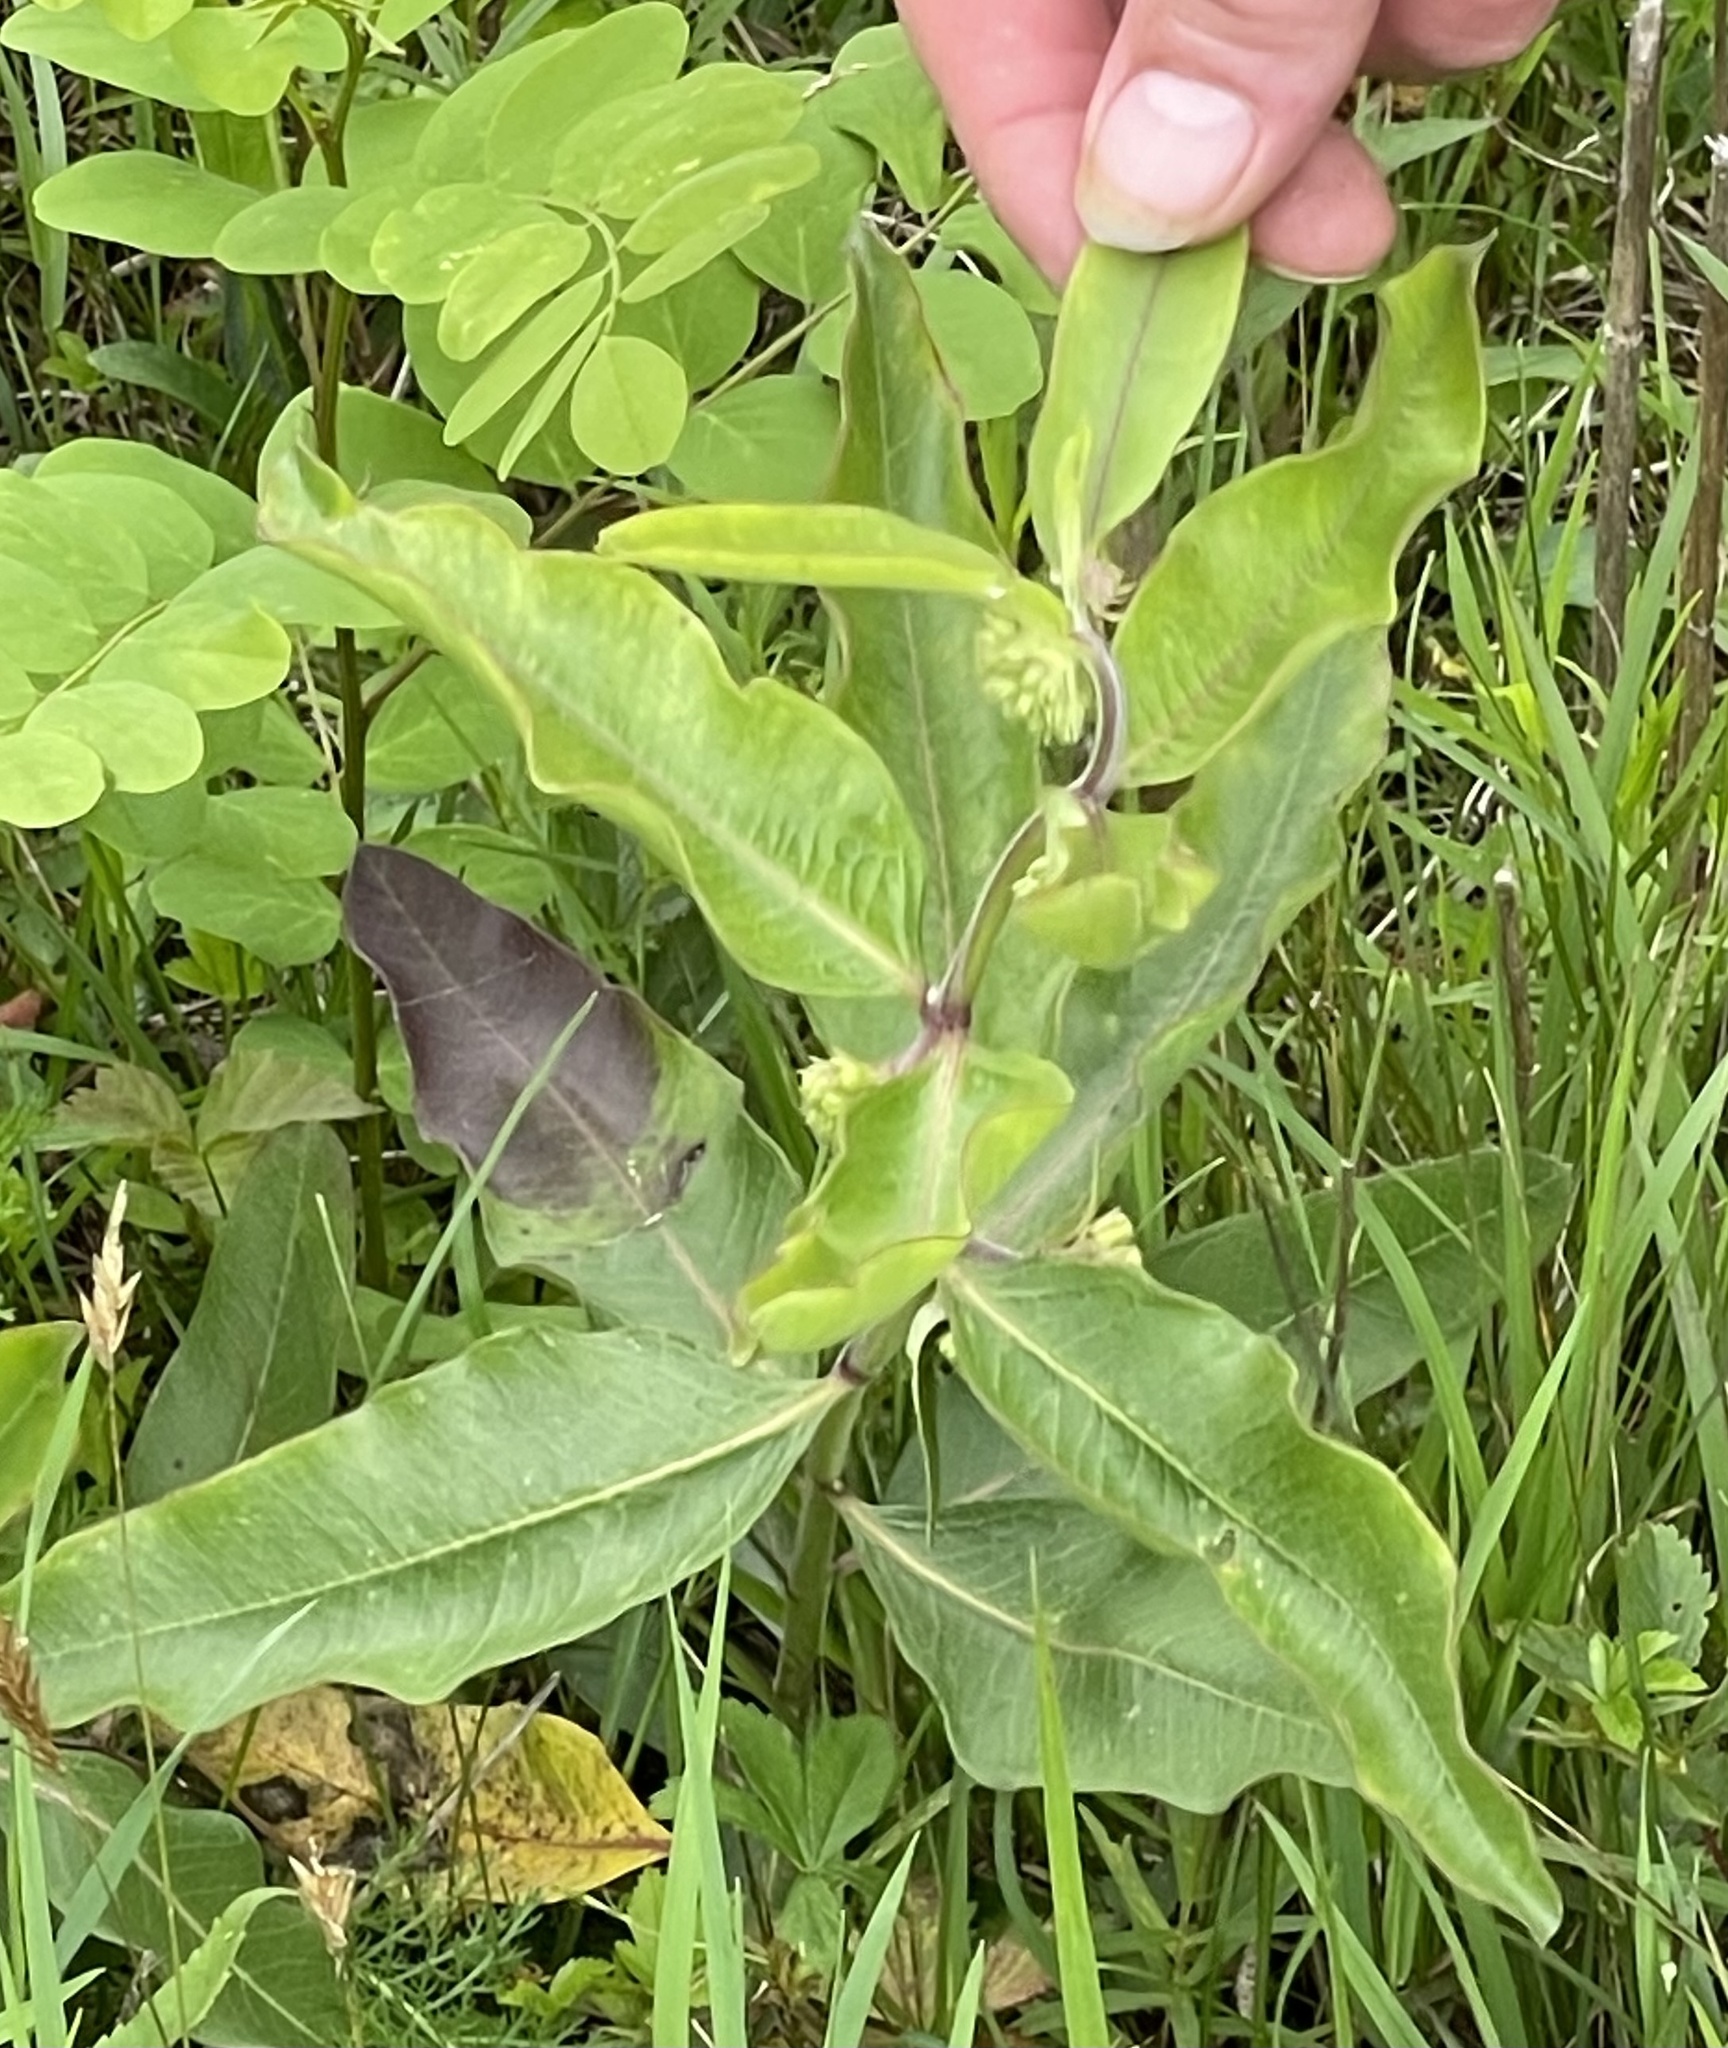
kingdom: Plantae
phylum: Tracheophyta
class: Magnoliopsida
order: Gentianales
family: Apocynaceae
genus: Asclepias
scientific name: Asclepias viridiflora
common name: Green comet milkweed
